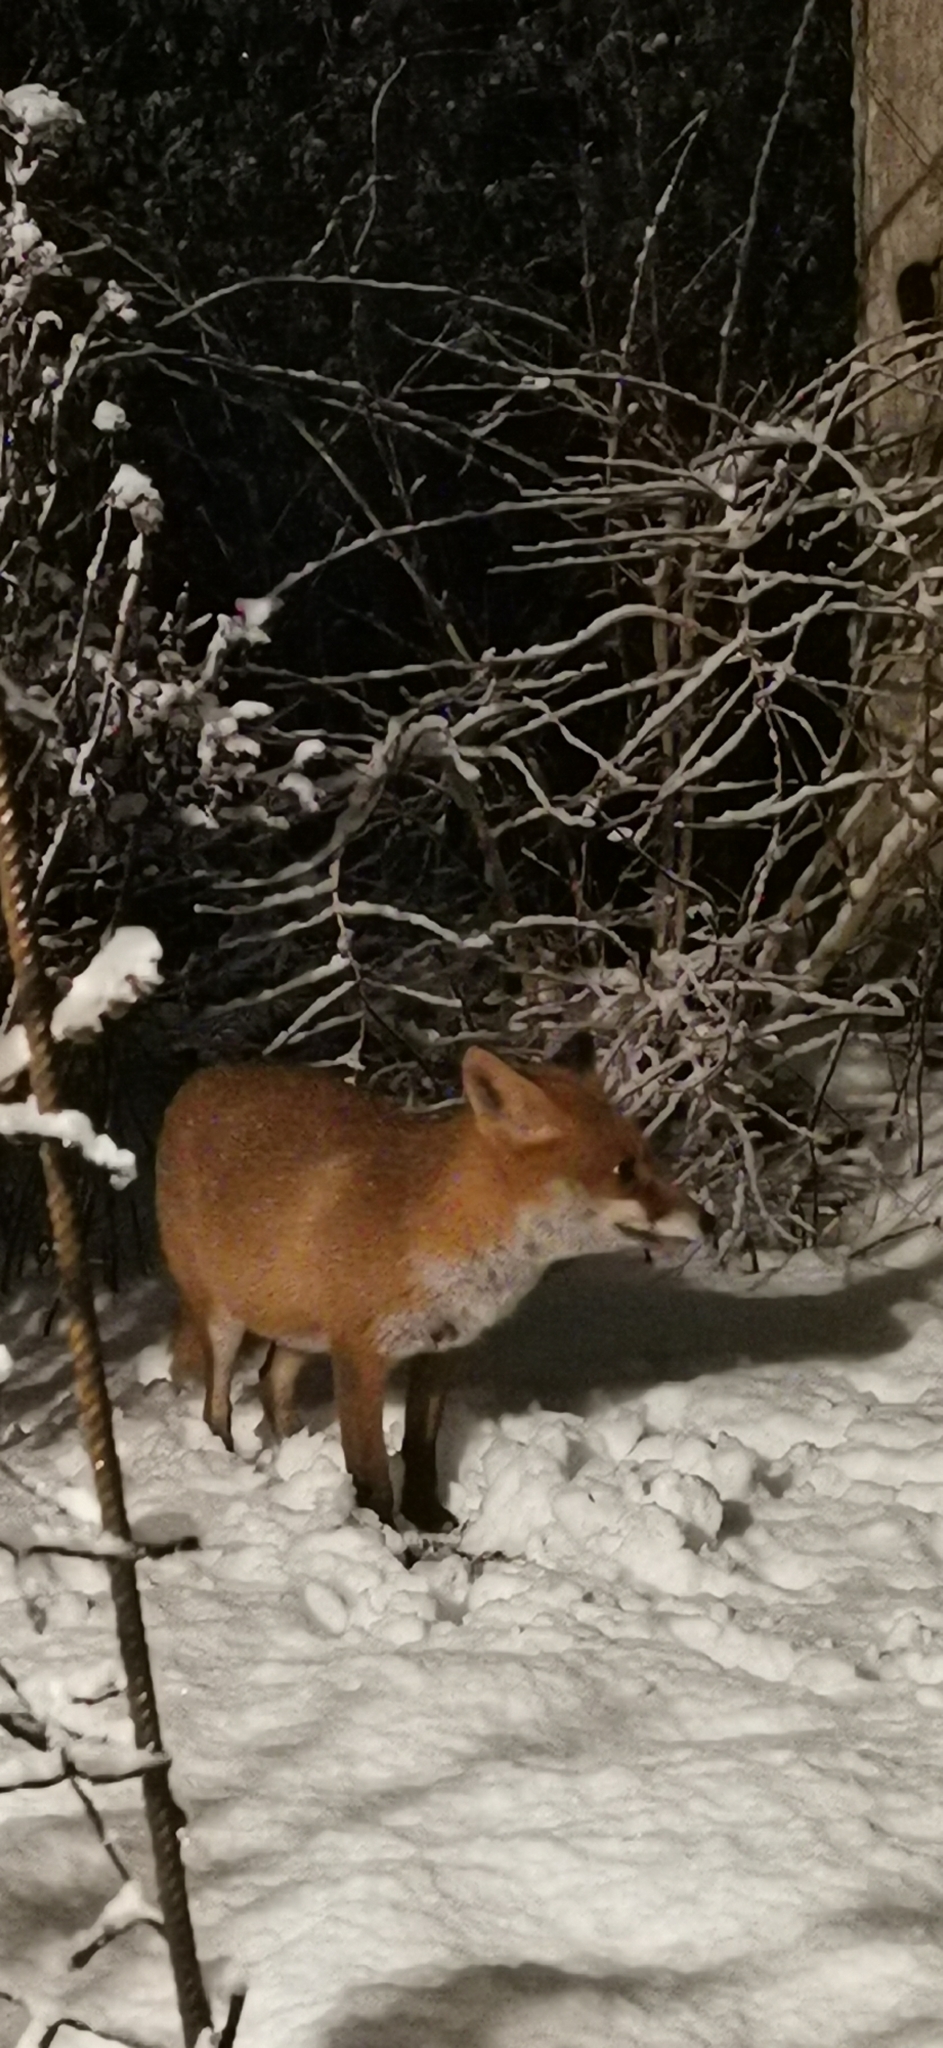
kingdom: Animalia
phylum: Chordata
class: Mammalia
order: Carnivora
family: Canidae
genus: Vulpes
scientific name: Vulpes vulpes
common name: Red fox
